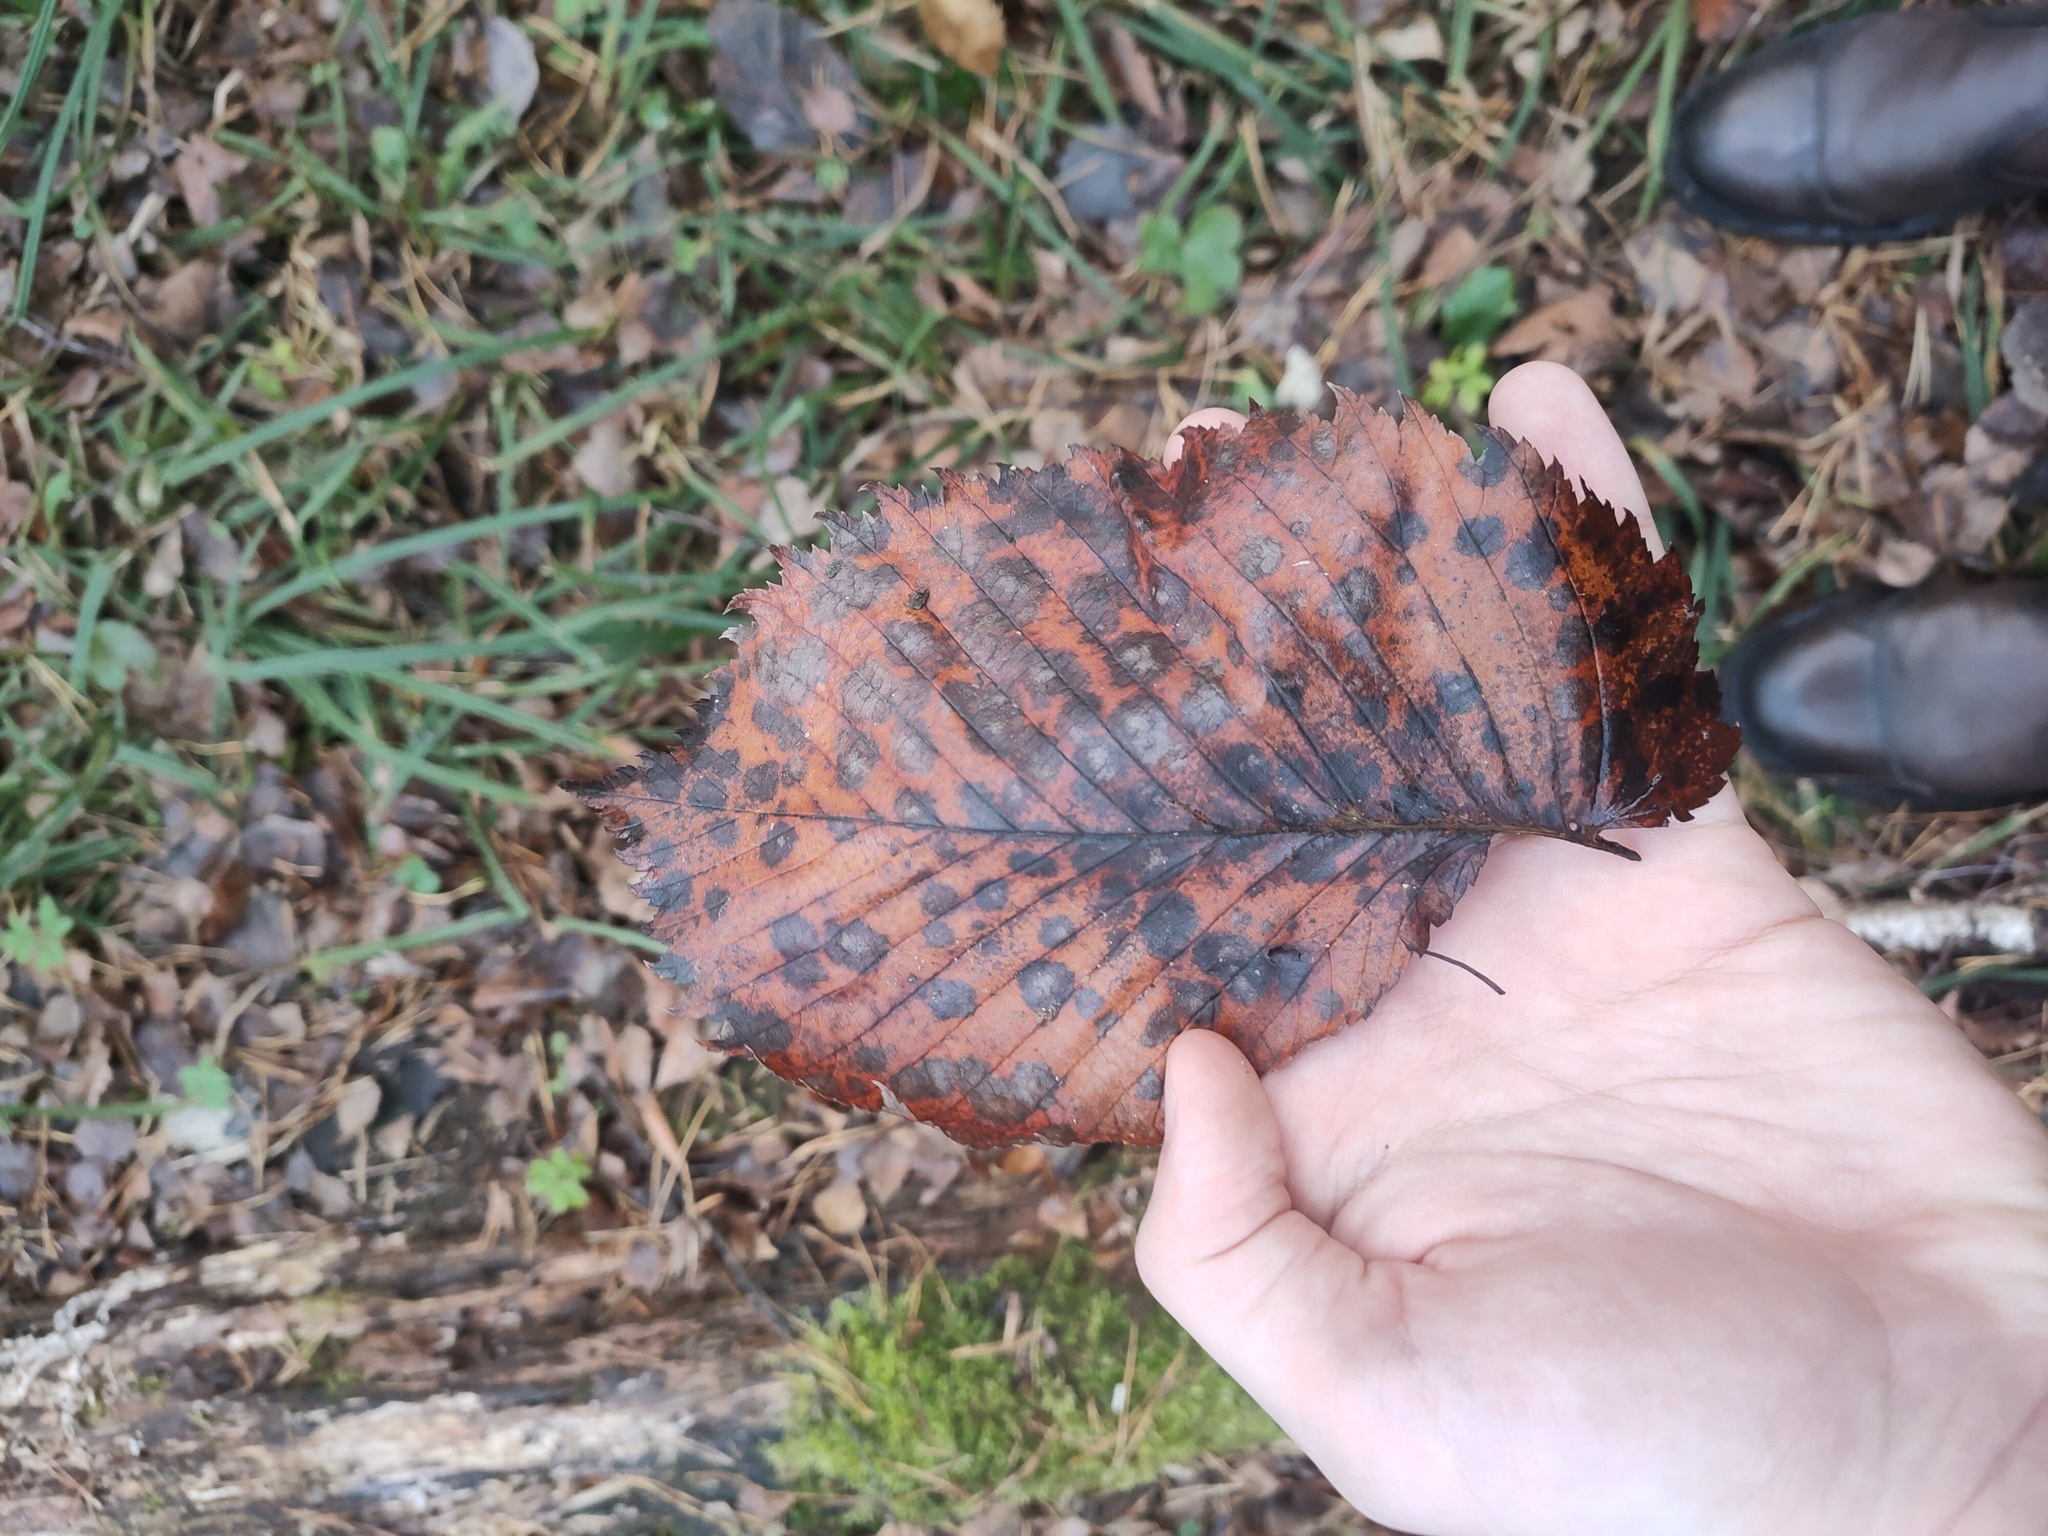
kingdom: Plantae
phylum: Tracheophyta
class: Magnoliopsida
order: Rosales
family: Ulmaceae
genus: Ulmus
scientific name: Ulmus laevis
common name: European white-elm
